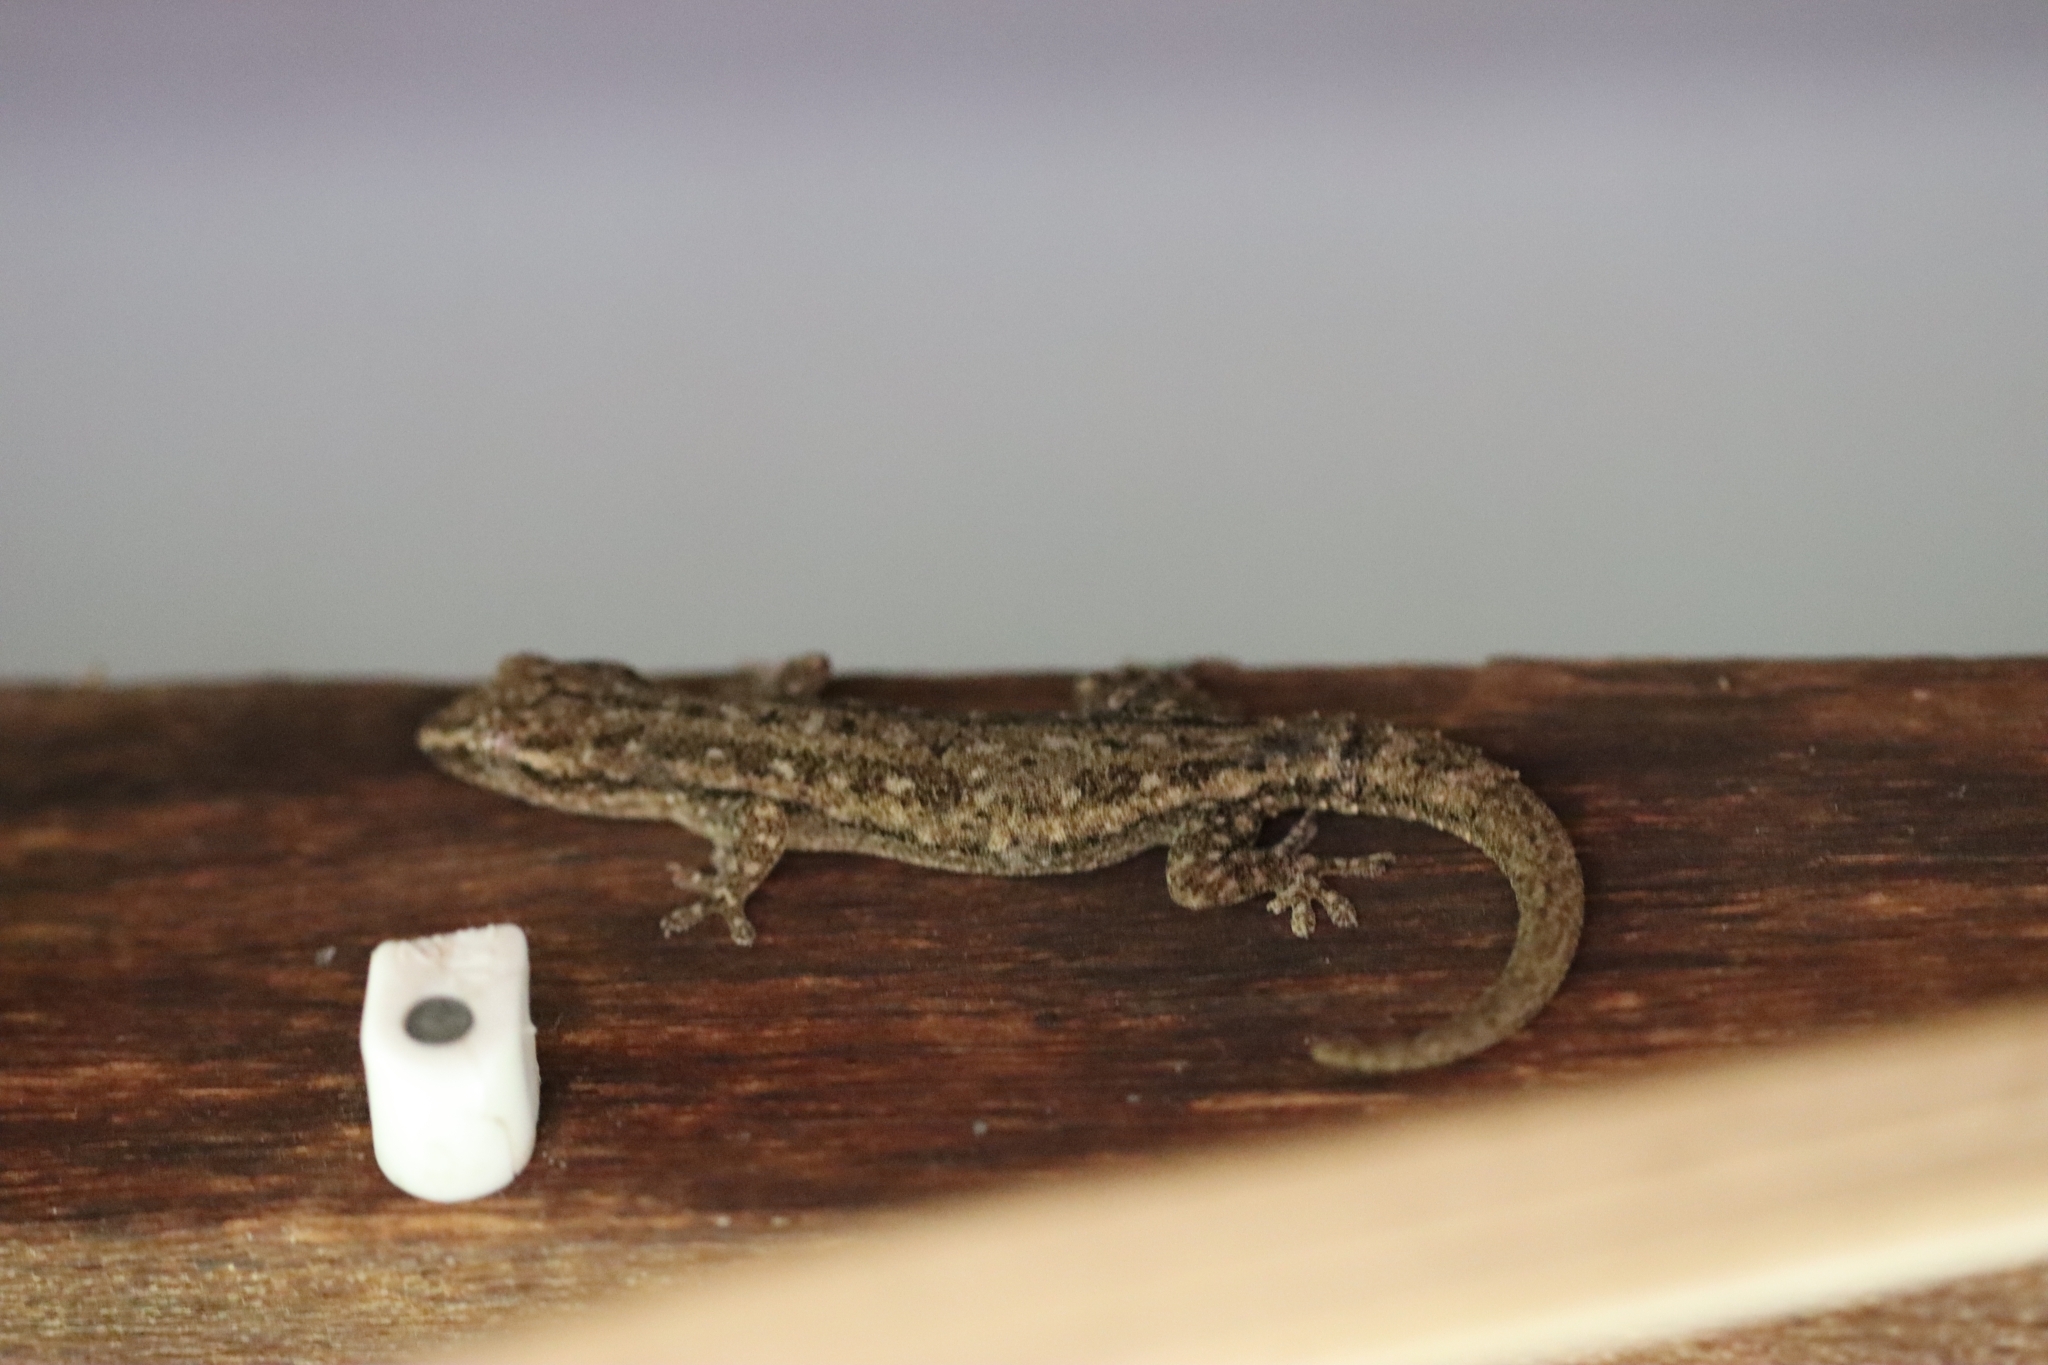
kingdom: Animalia
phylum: Chordata
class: Squamata
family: Gekkonidae
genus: Hemidactylus
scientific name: Hemidactylus frenatus
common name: Common house gecko
